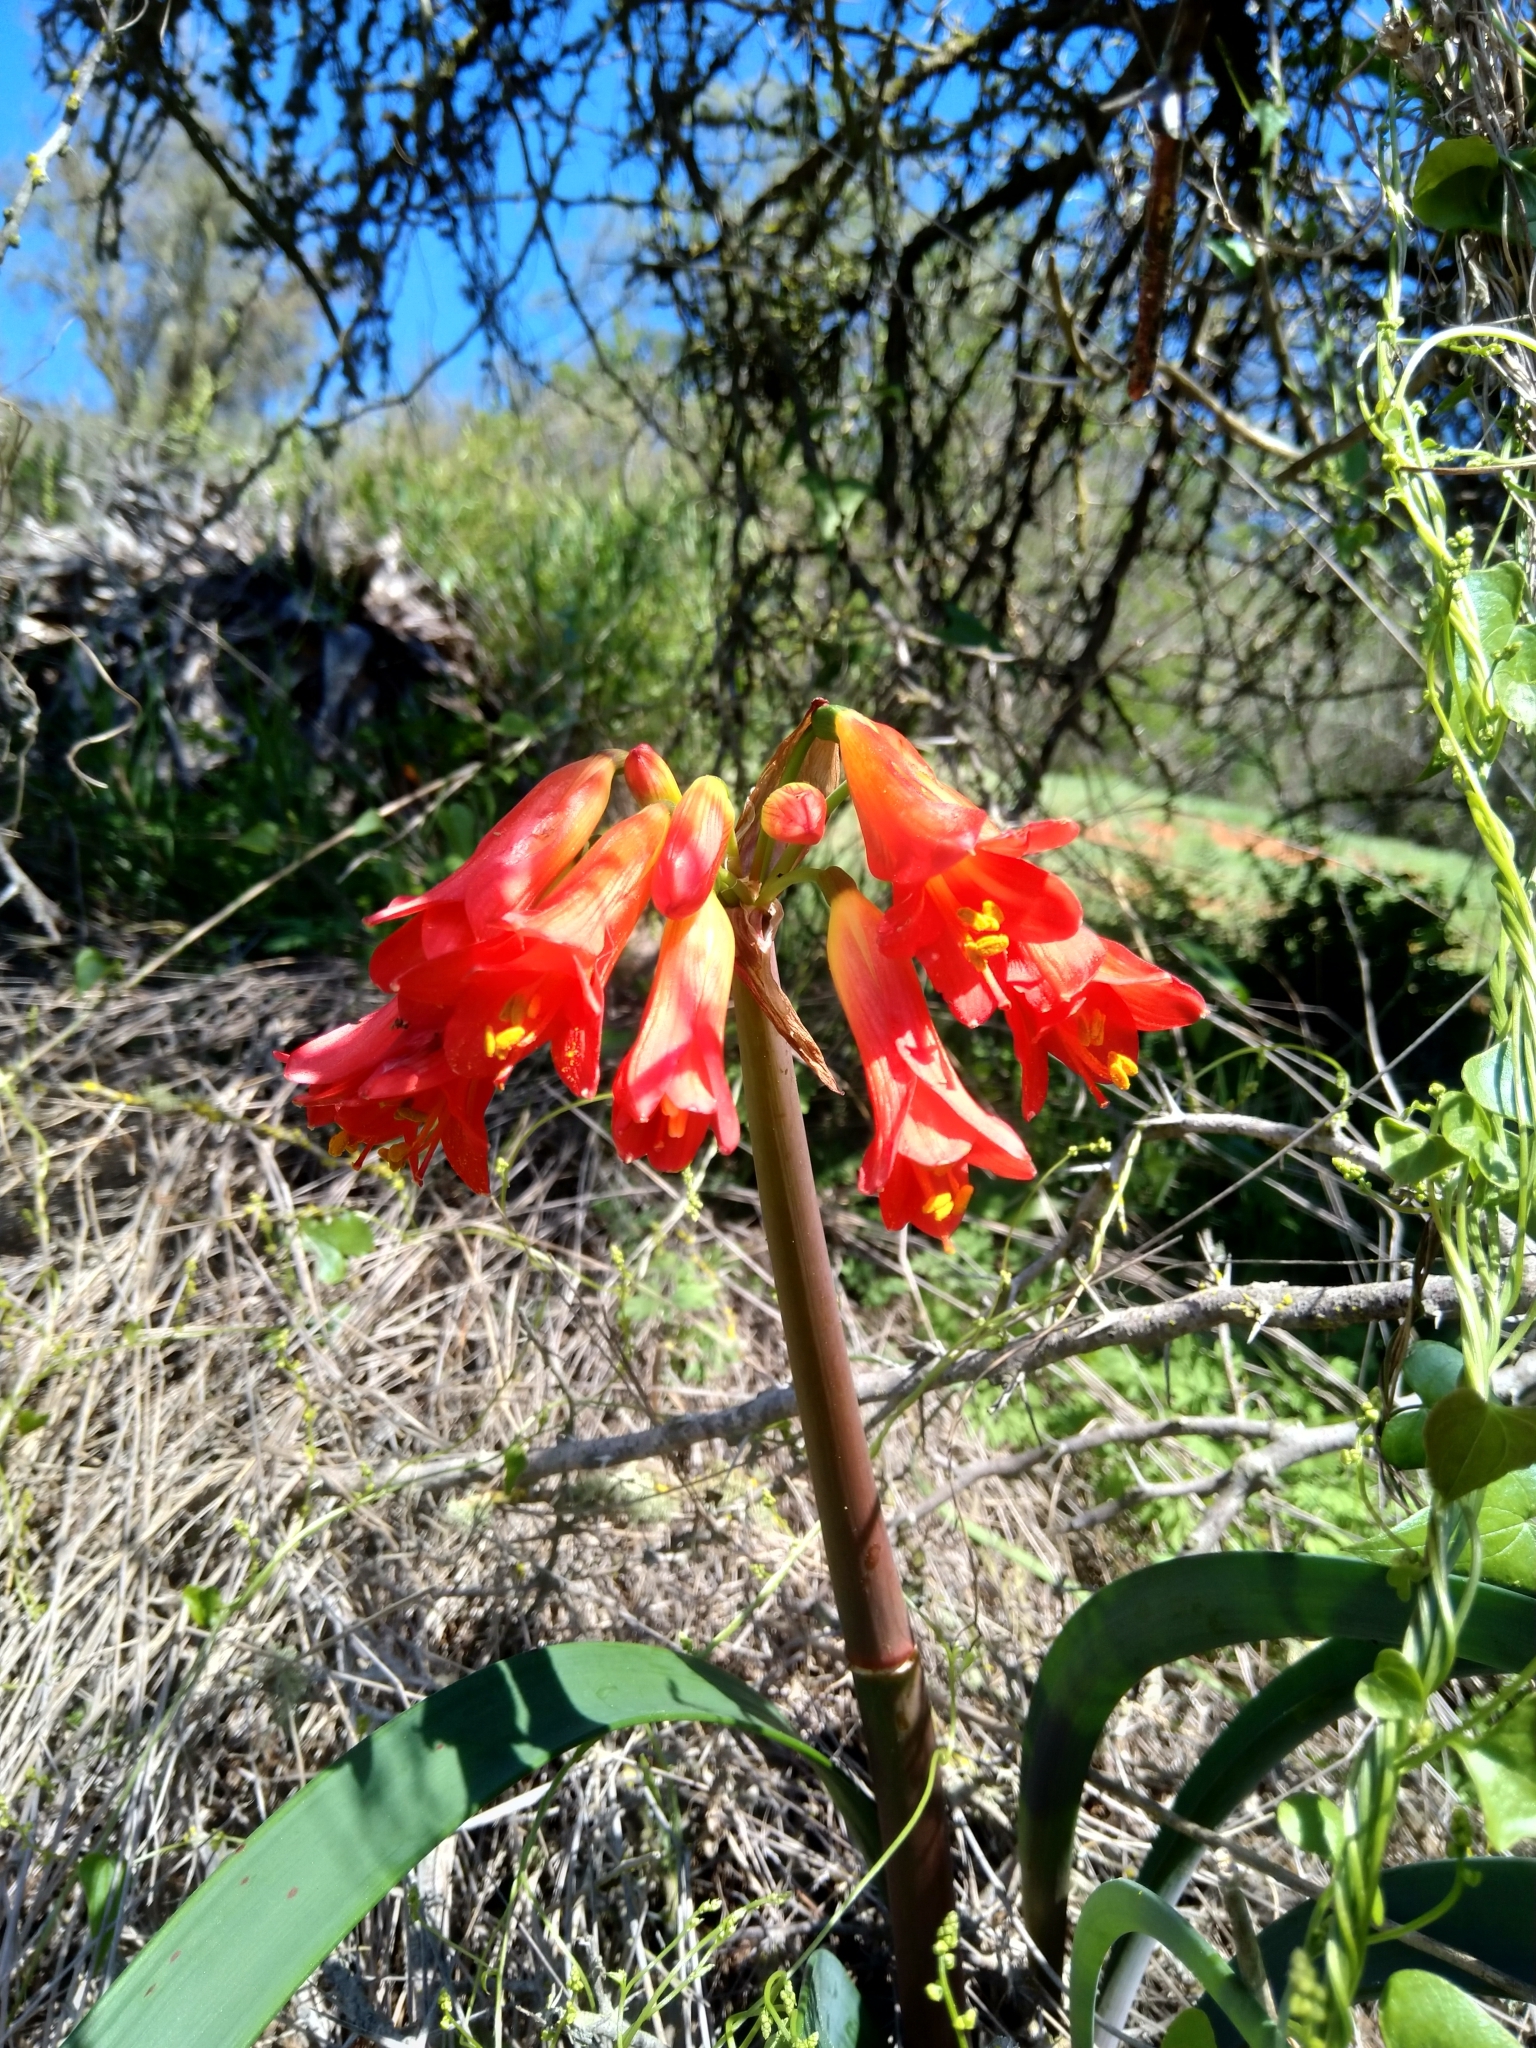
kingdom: Plantae
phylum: Tracheophyta
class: Liliopsida
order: Asparagales
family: Amaryllidaceae
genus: Phycella
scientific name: Phycella cyrtanthoides
